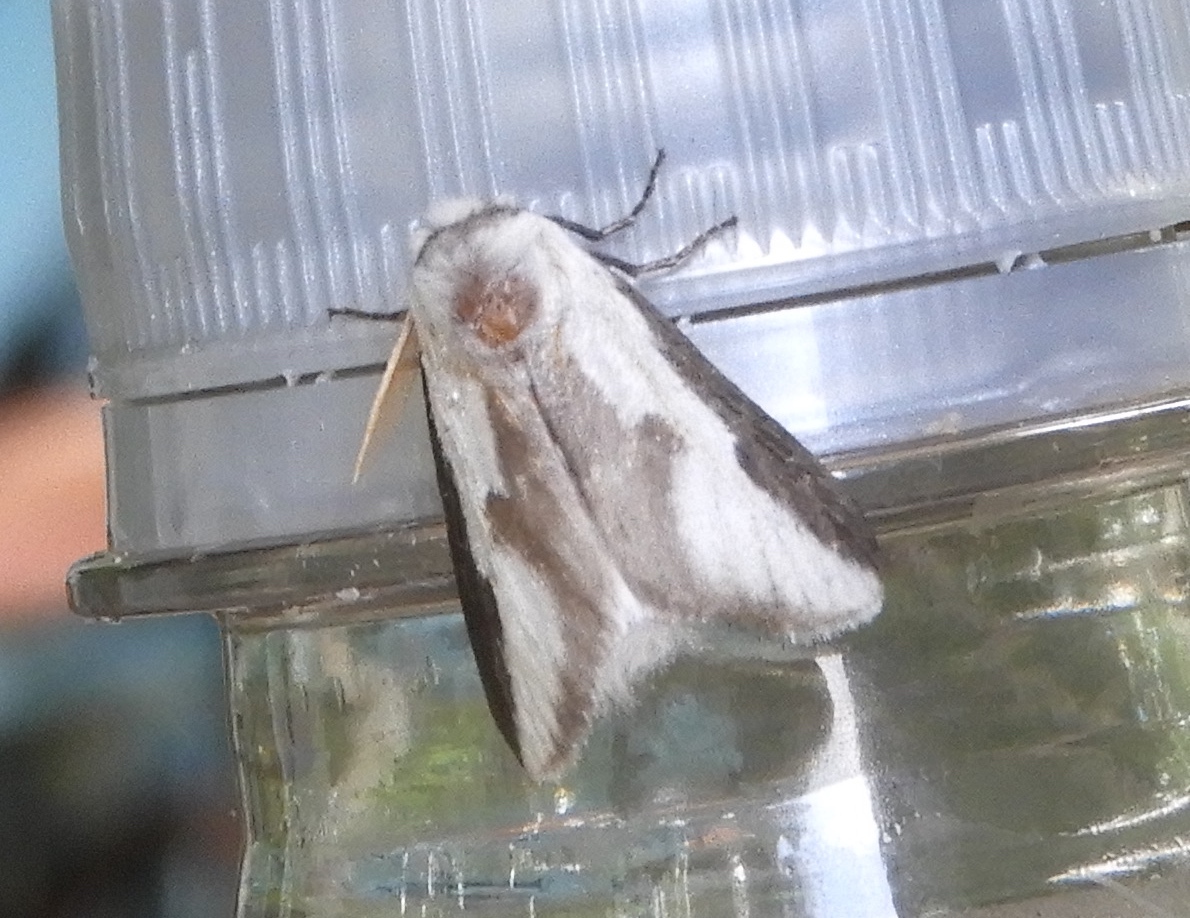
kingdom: Animalia
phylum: Arthropoda
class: Insecta
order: Lepidoptera
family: Megalopygidae
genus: Norape
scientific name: Norape tener
